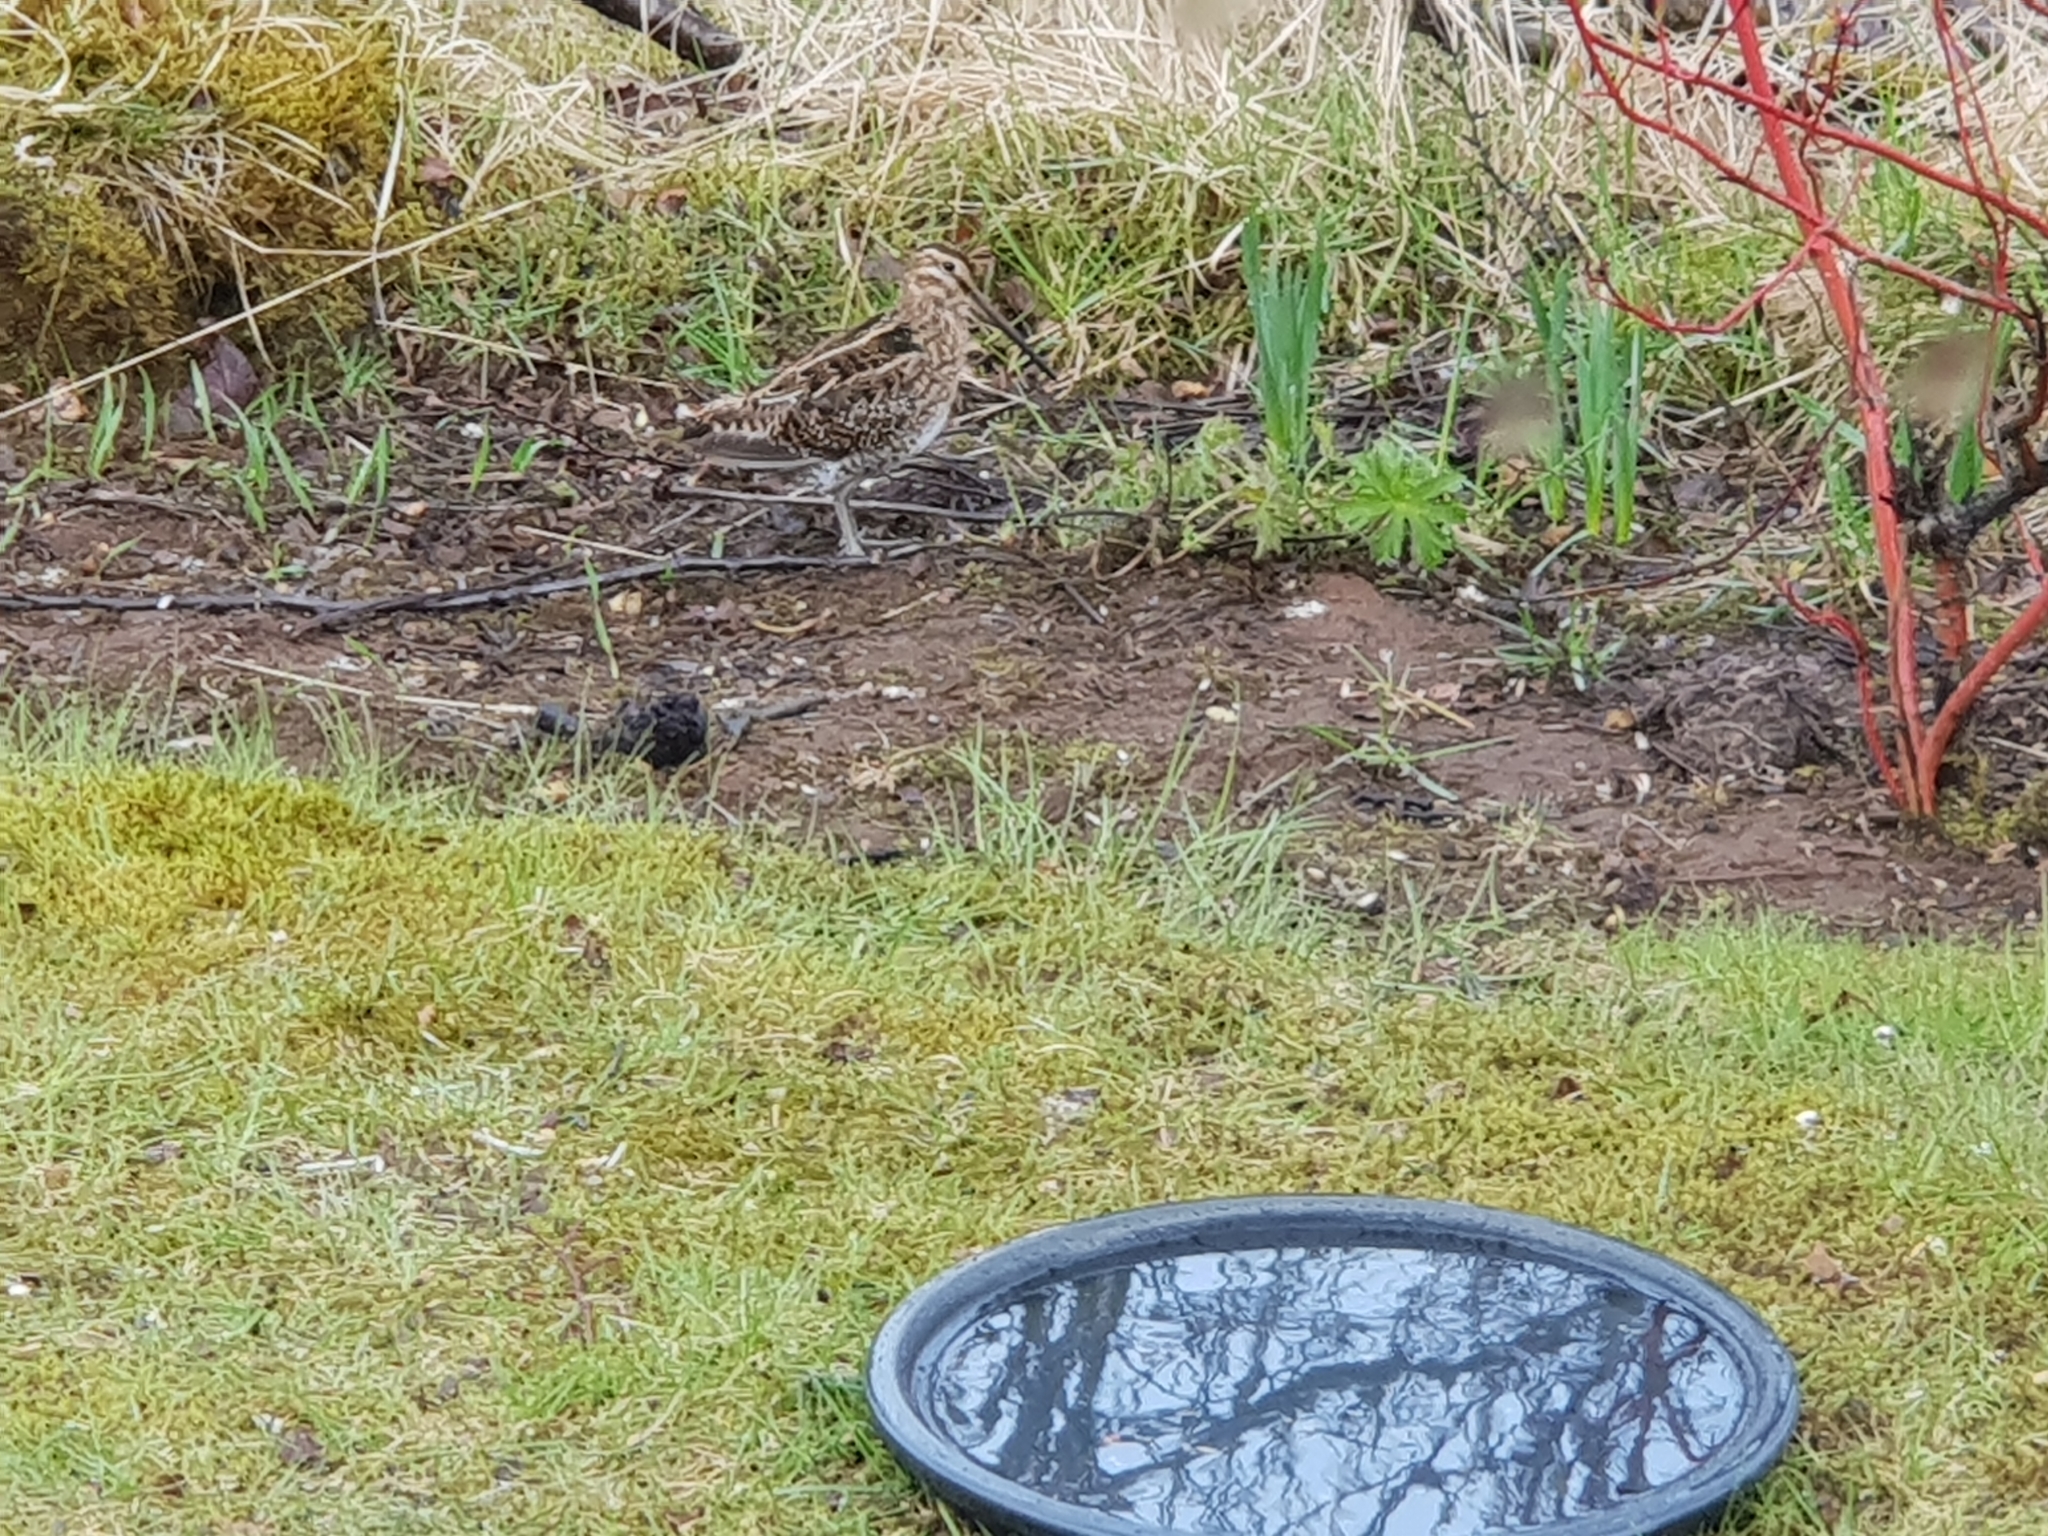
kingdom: Animalia
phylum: Chordata
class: Aves
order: Charadriiformes
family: Scolopacidae
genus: Gallinago
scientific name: Gallinago gallinago
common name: Common snipe
